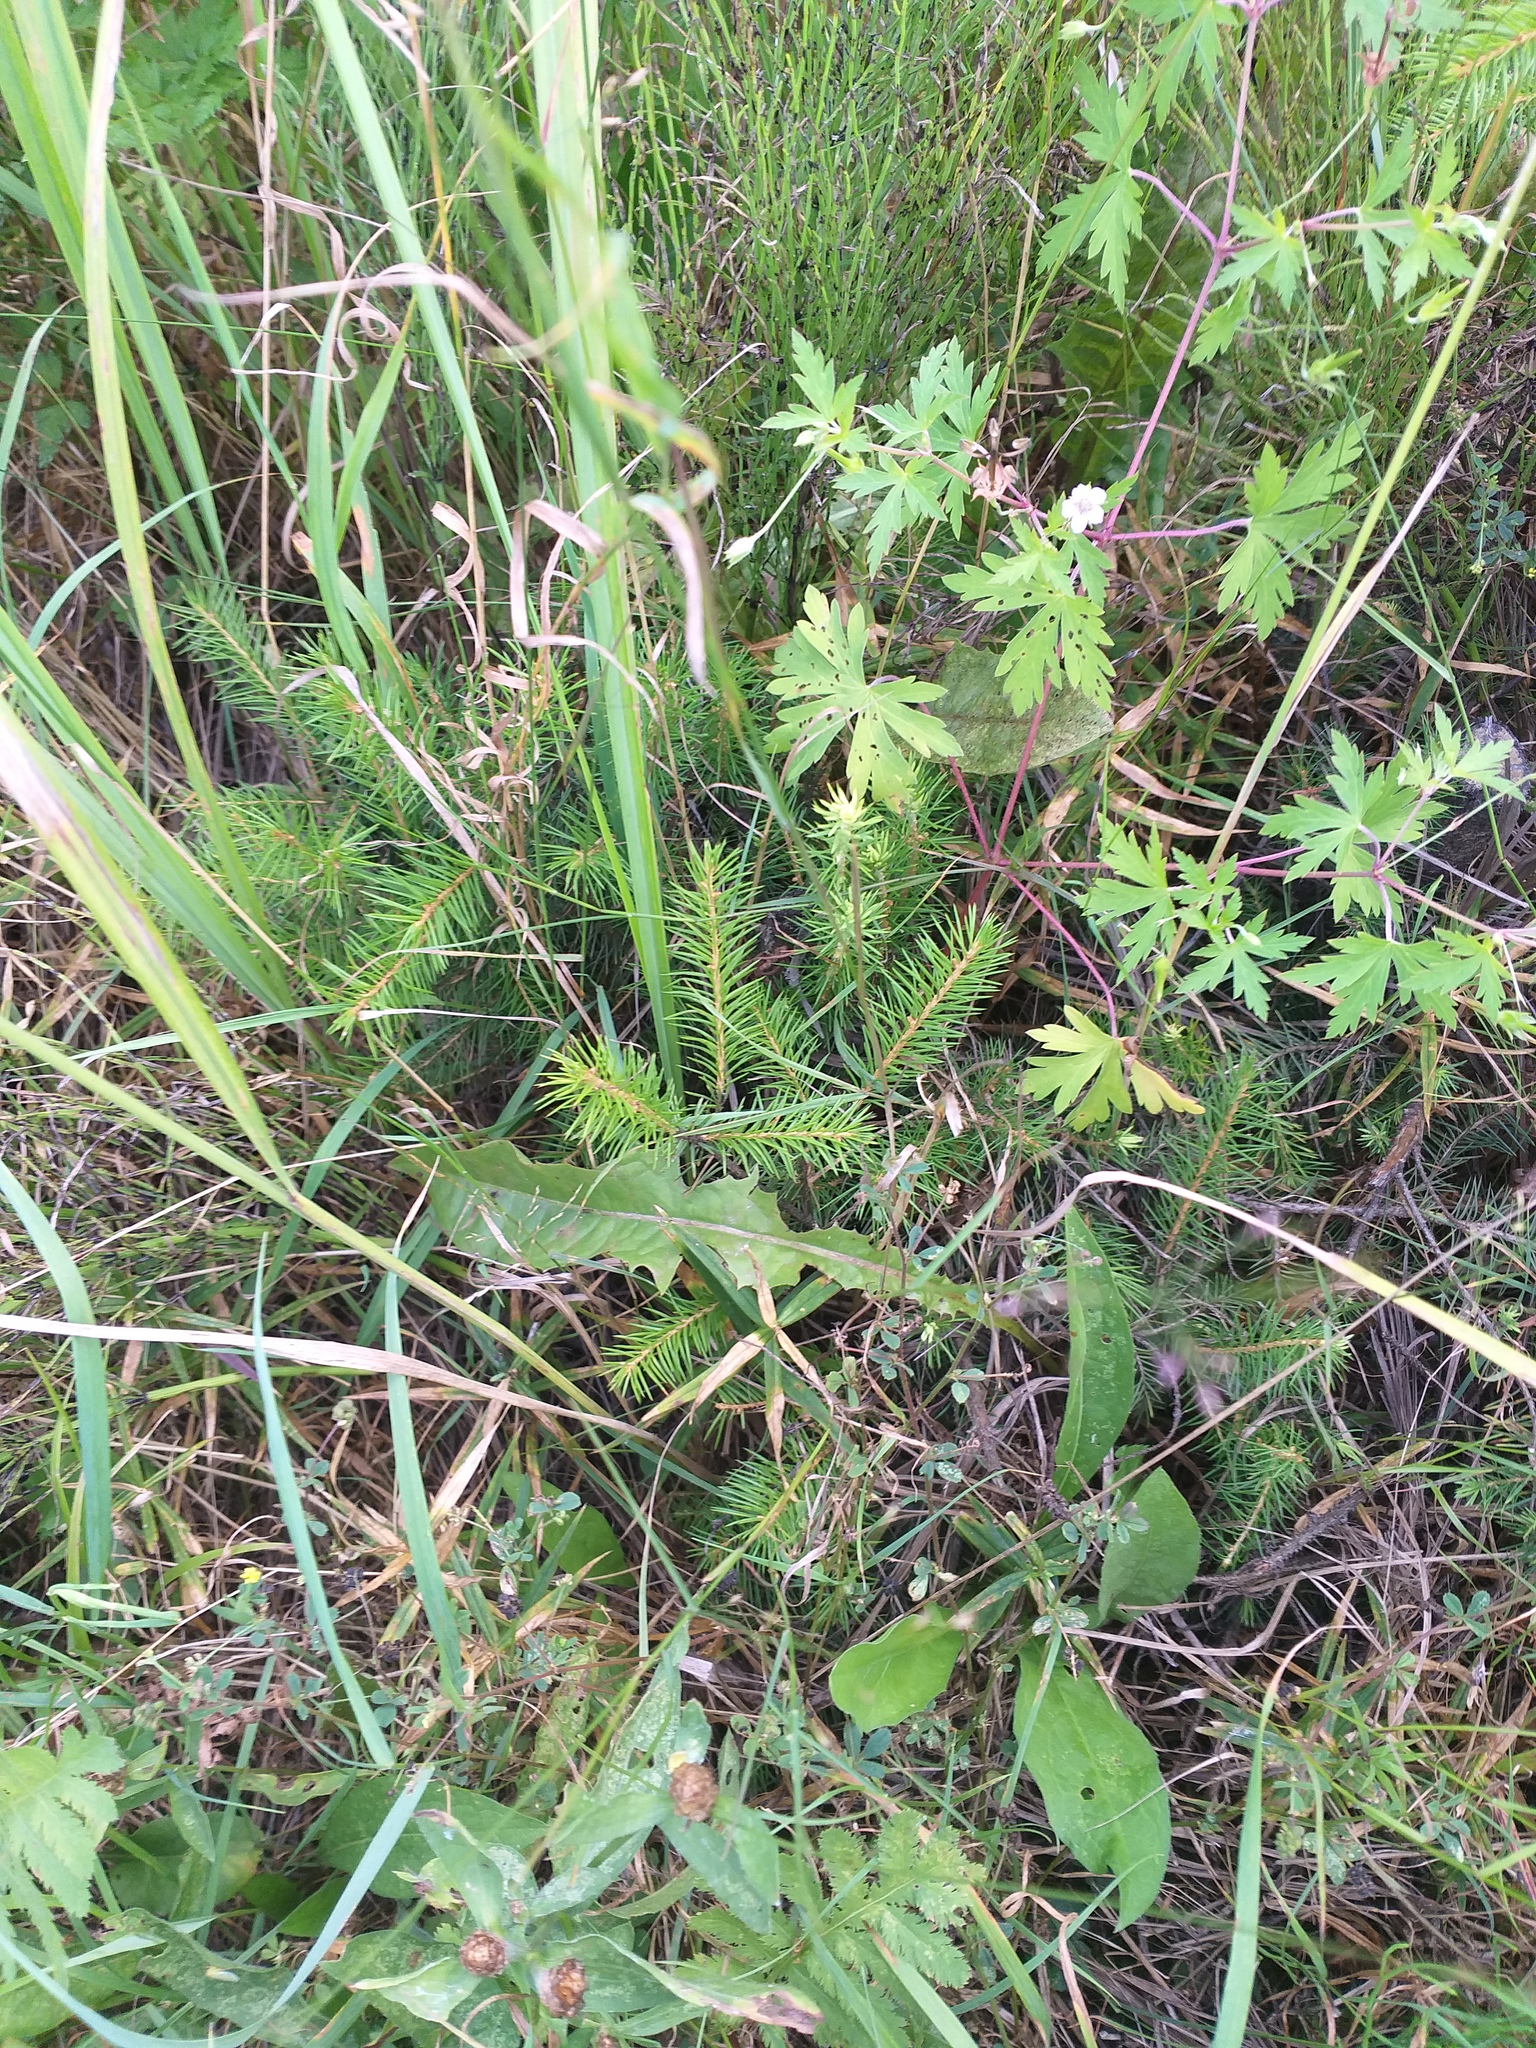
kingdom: Plantae
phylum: Tracheophyta
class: Pinopsida
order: Pinales
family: Pinaceae
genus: Picea
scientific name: Picea abies
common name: Norway spruce
